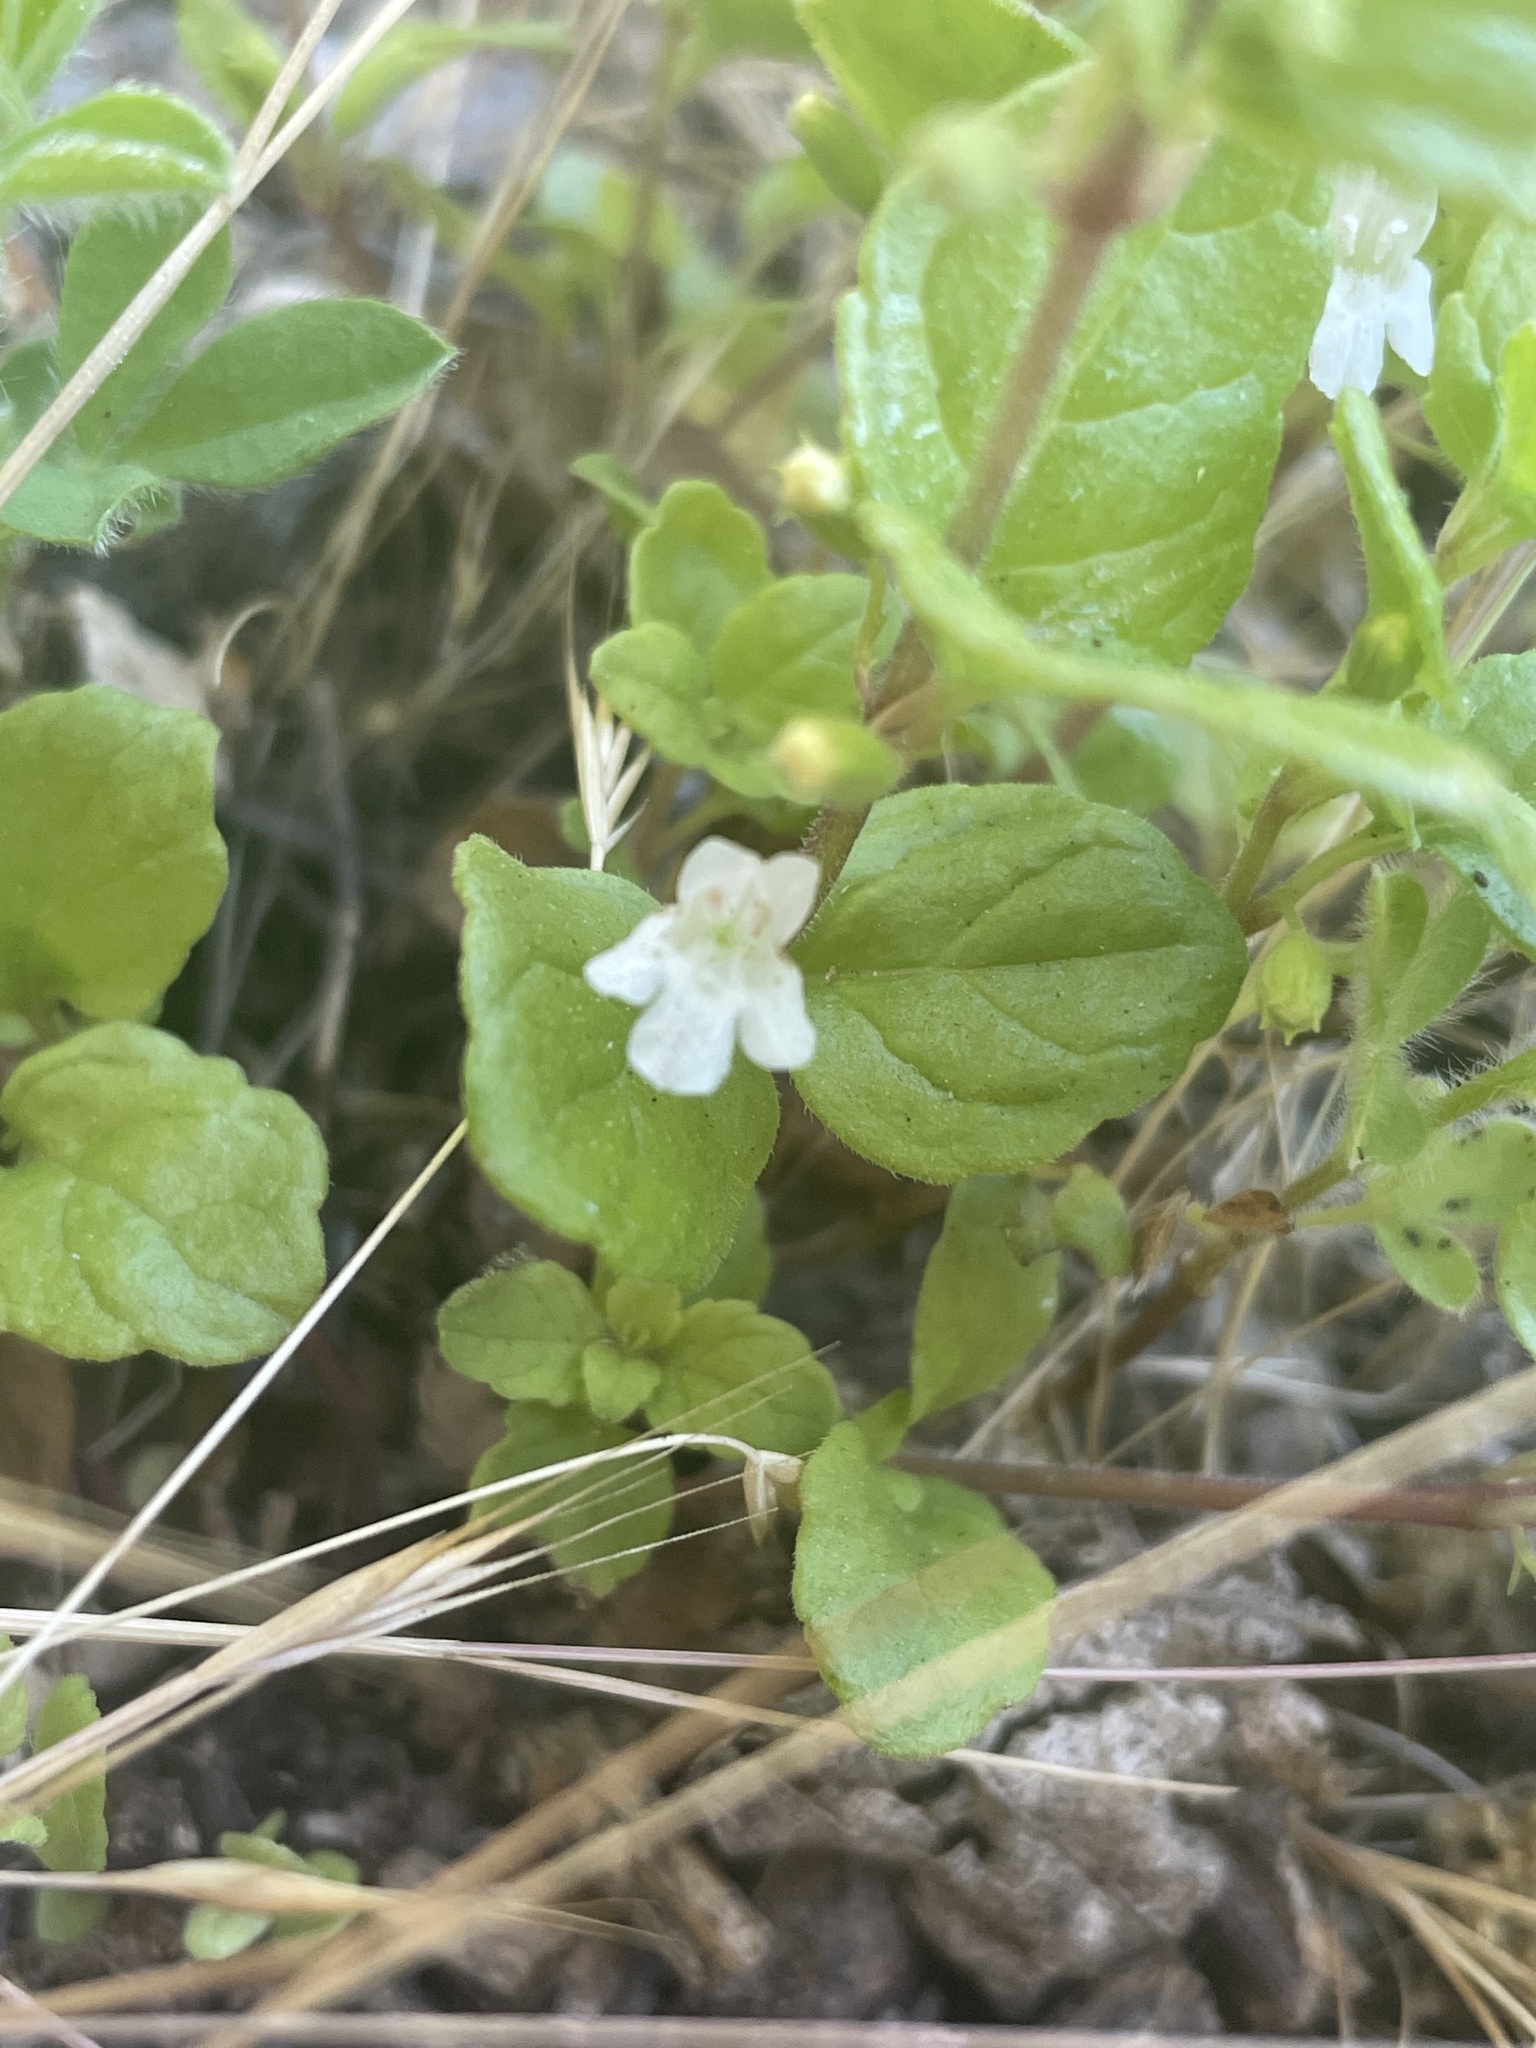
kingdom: Plantae
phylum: Tracheophyta
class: Magnoliopsida
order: Lamiales
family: Lamiaceae
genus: Micromeria
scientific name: Micromeria douglasii
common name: Yerba buena
